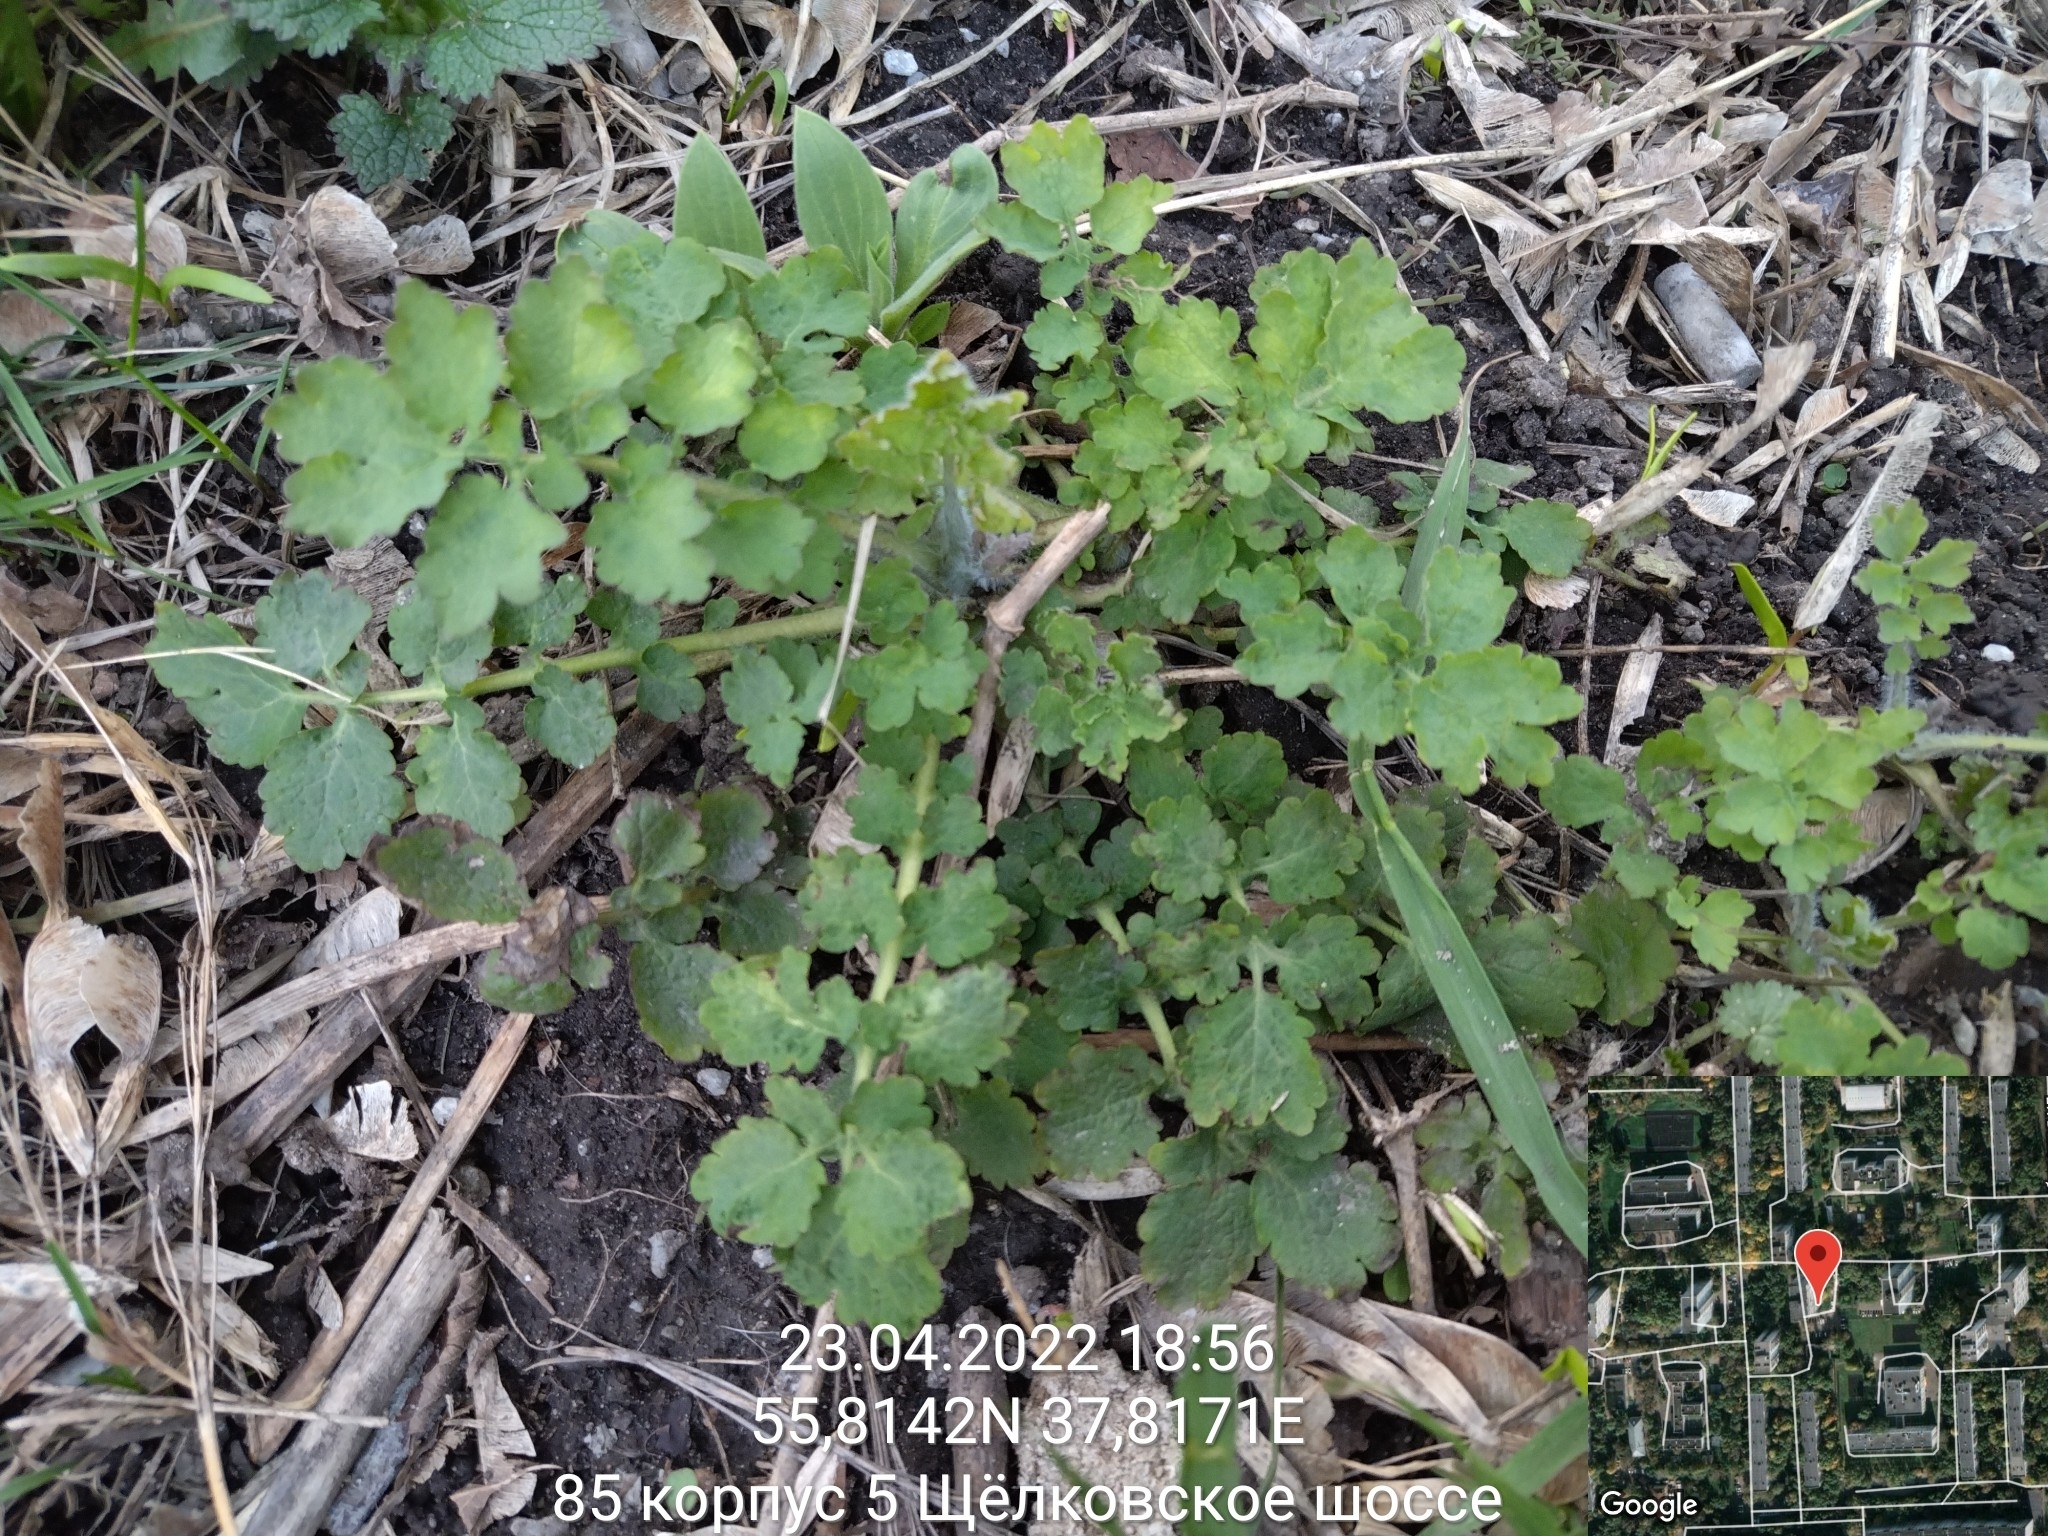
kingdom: Plantae
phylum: Tracheophyta
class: Magnoliopsida
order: Ranunculales
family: Papaveraceae
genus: Chelidonium
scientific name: Chelidonium majus
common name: Greater celandine
